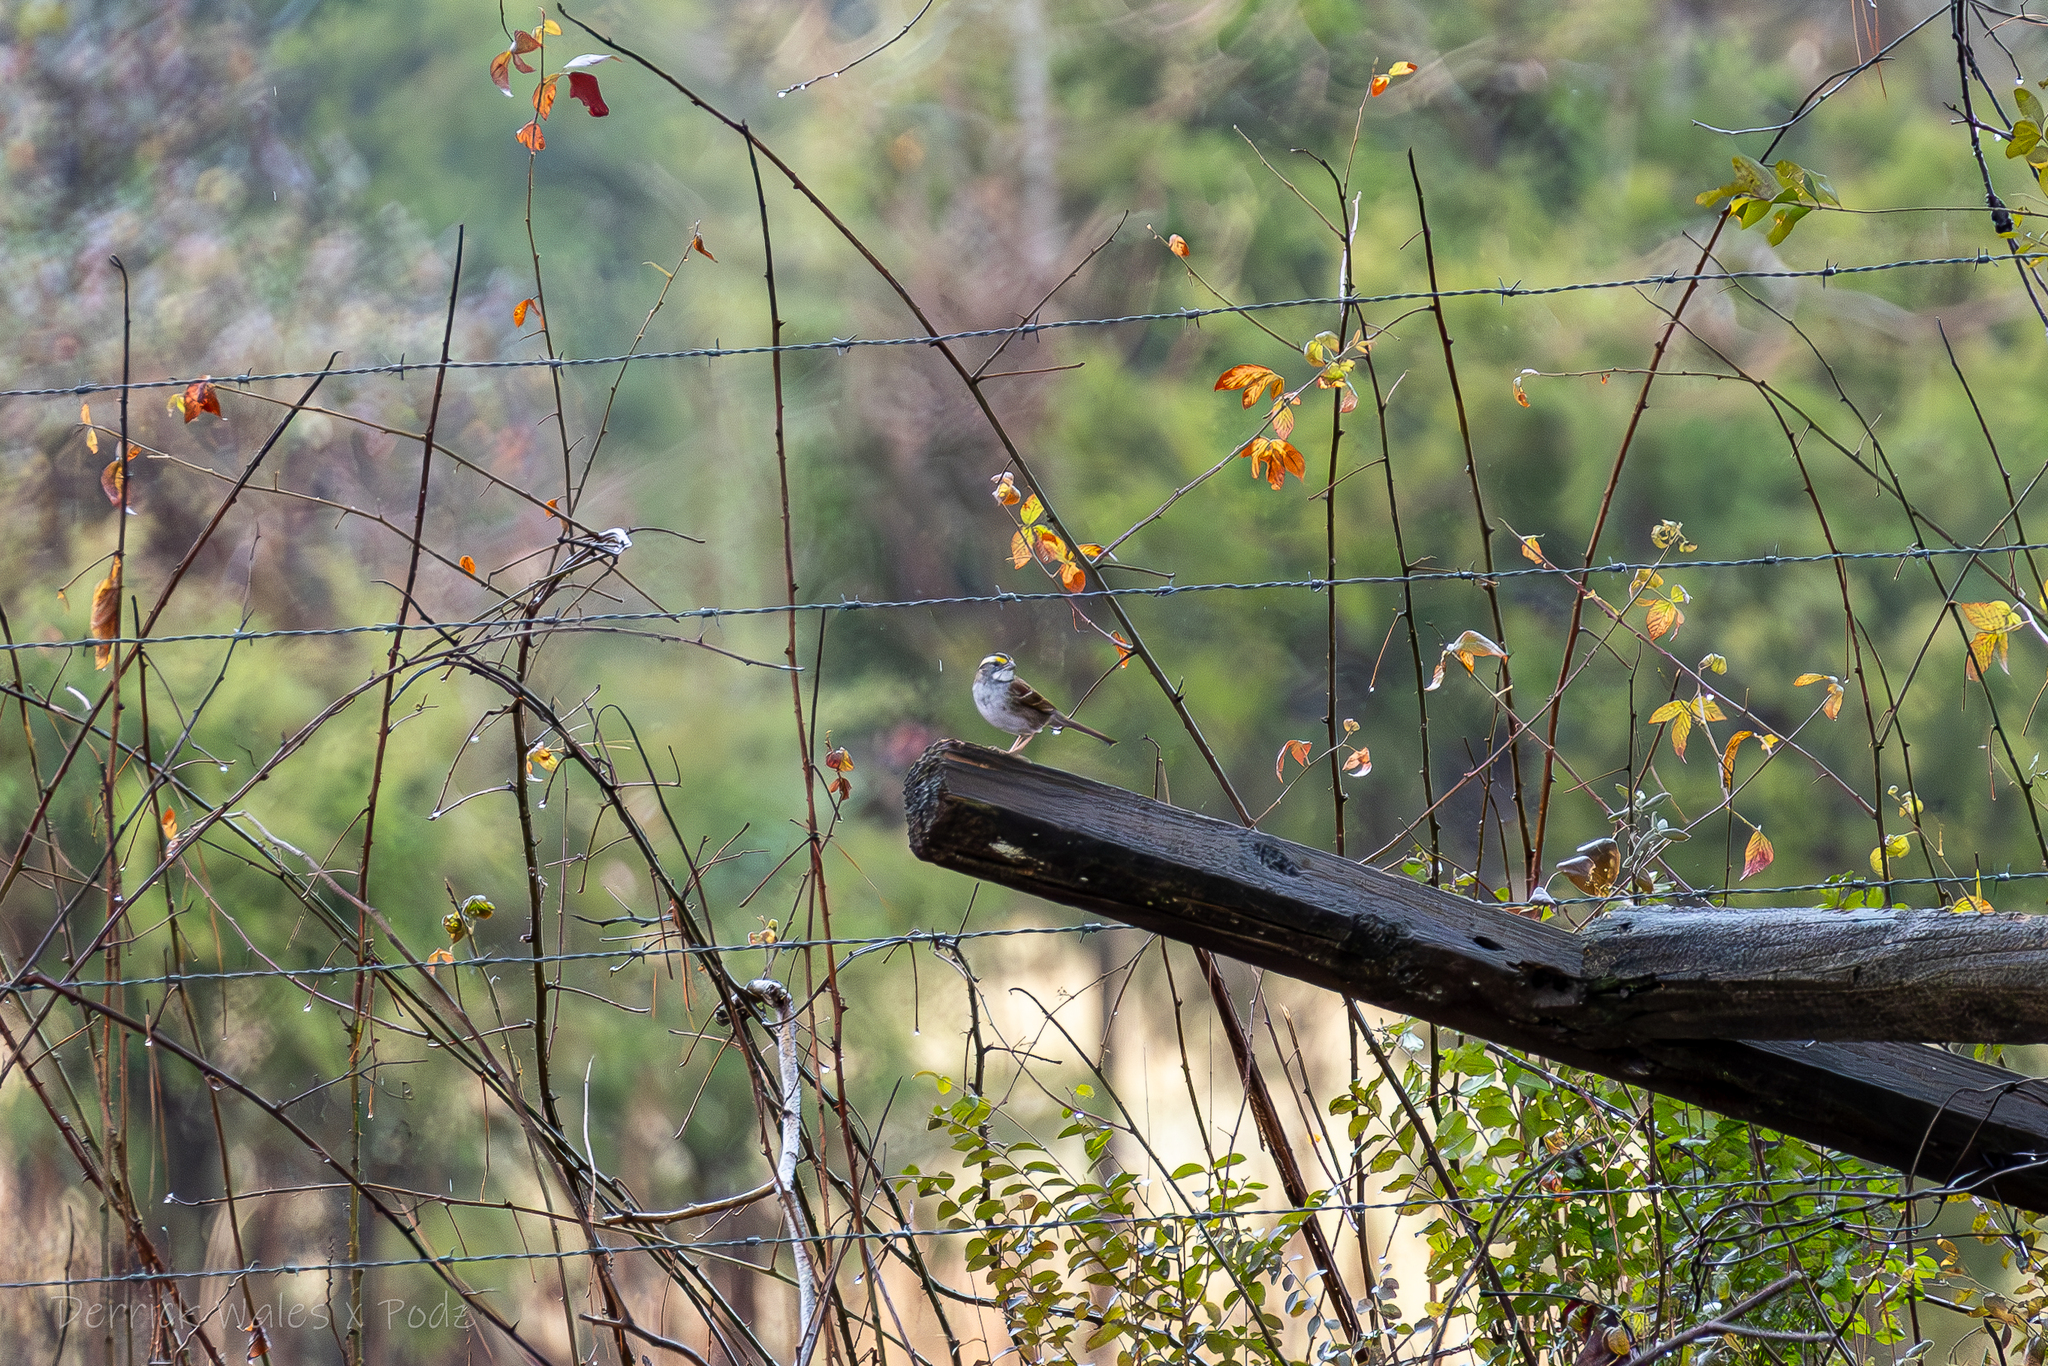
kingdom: Animalia
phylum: Chordata
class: Aves
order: Passeriformes
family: Passerellidae
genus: Zonotrichia
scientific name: Zonotrichia albicollis
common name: White-throated sparrow
